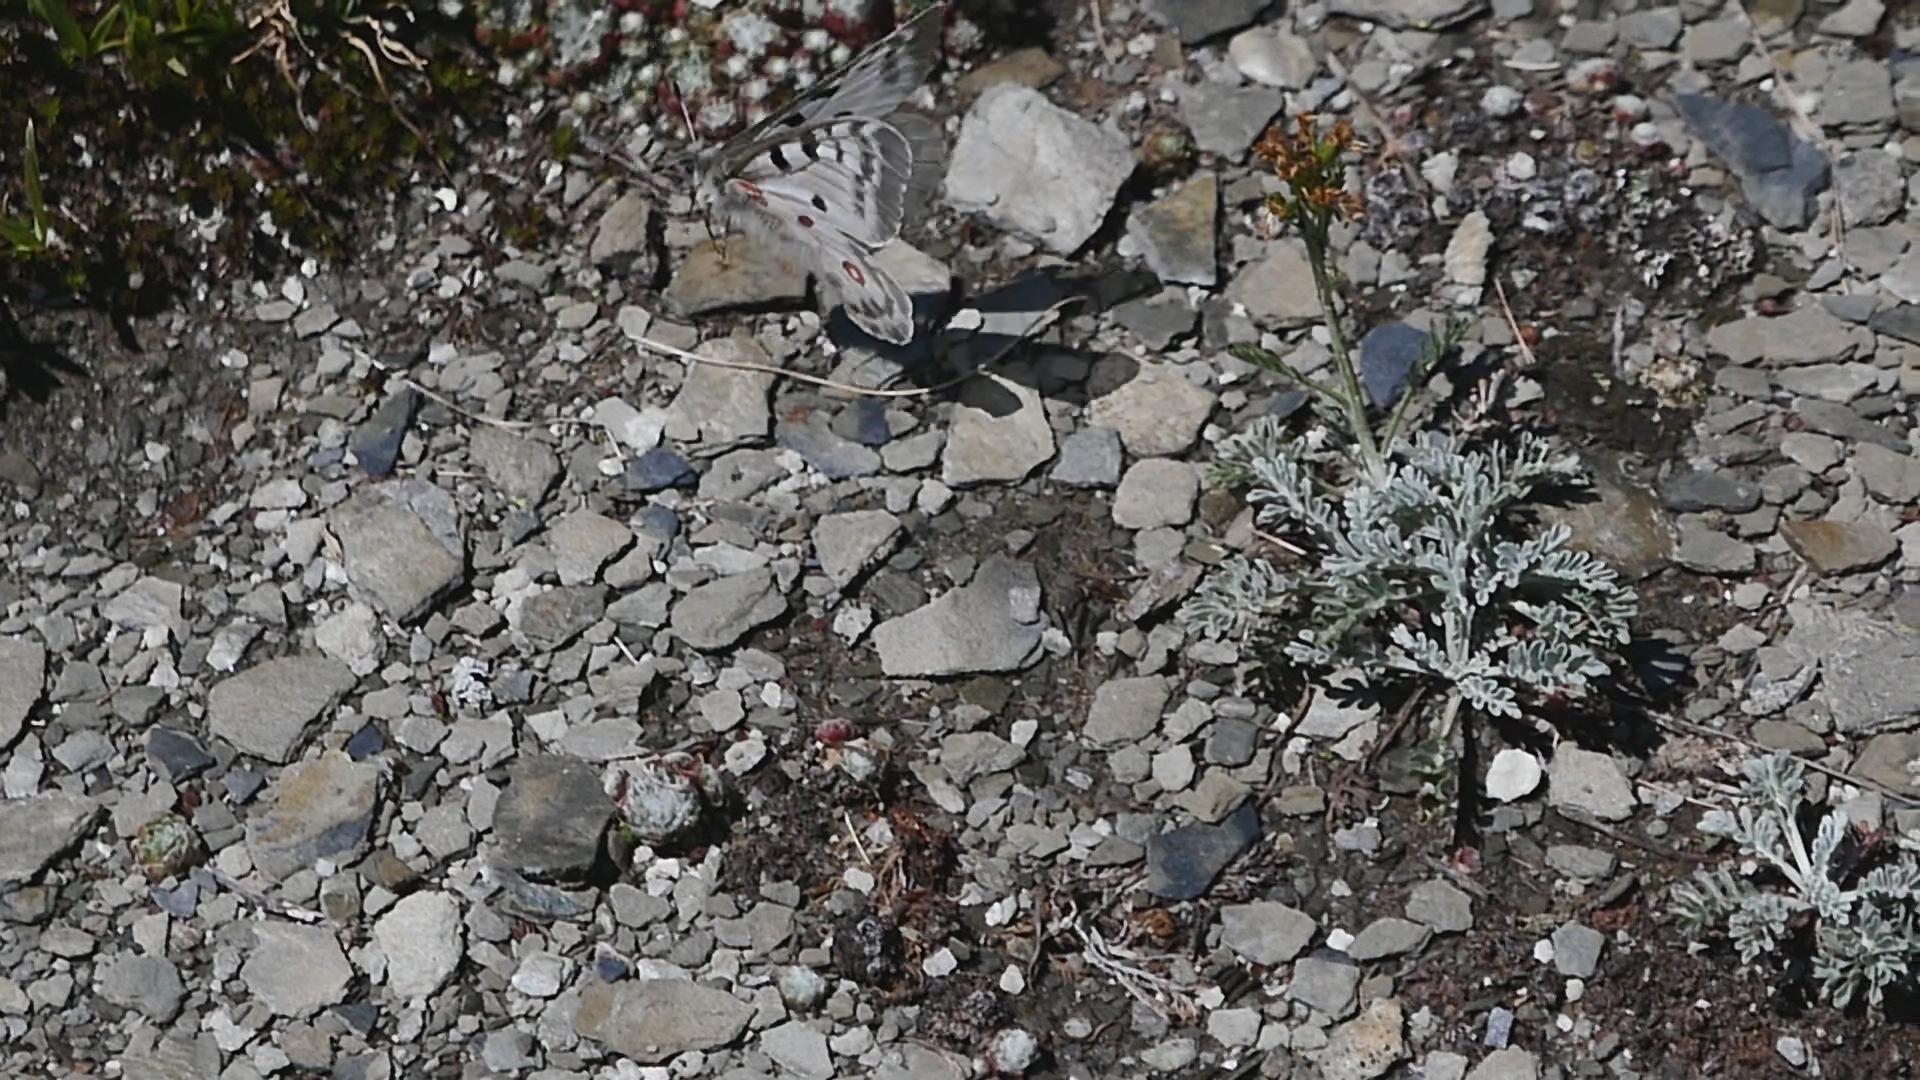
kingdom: Animalia
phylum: Arthropoda
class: Insecta
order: Lepidoptera
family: Papilionidae
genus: Parnassius
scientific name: Parnassius apollo
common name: Apollo
